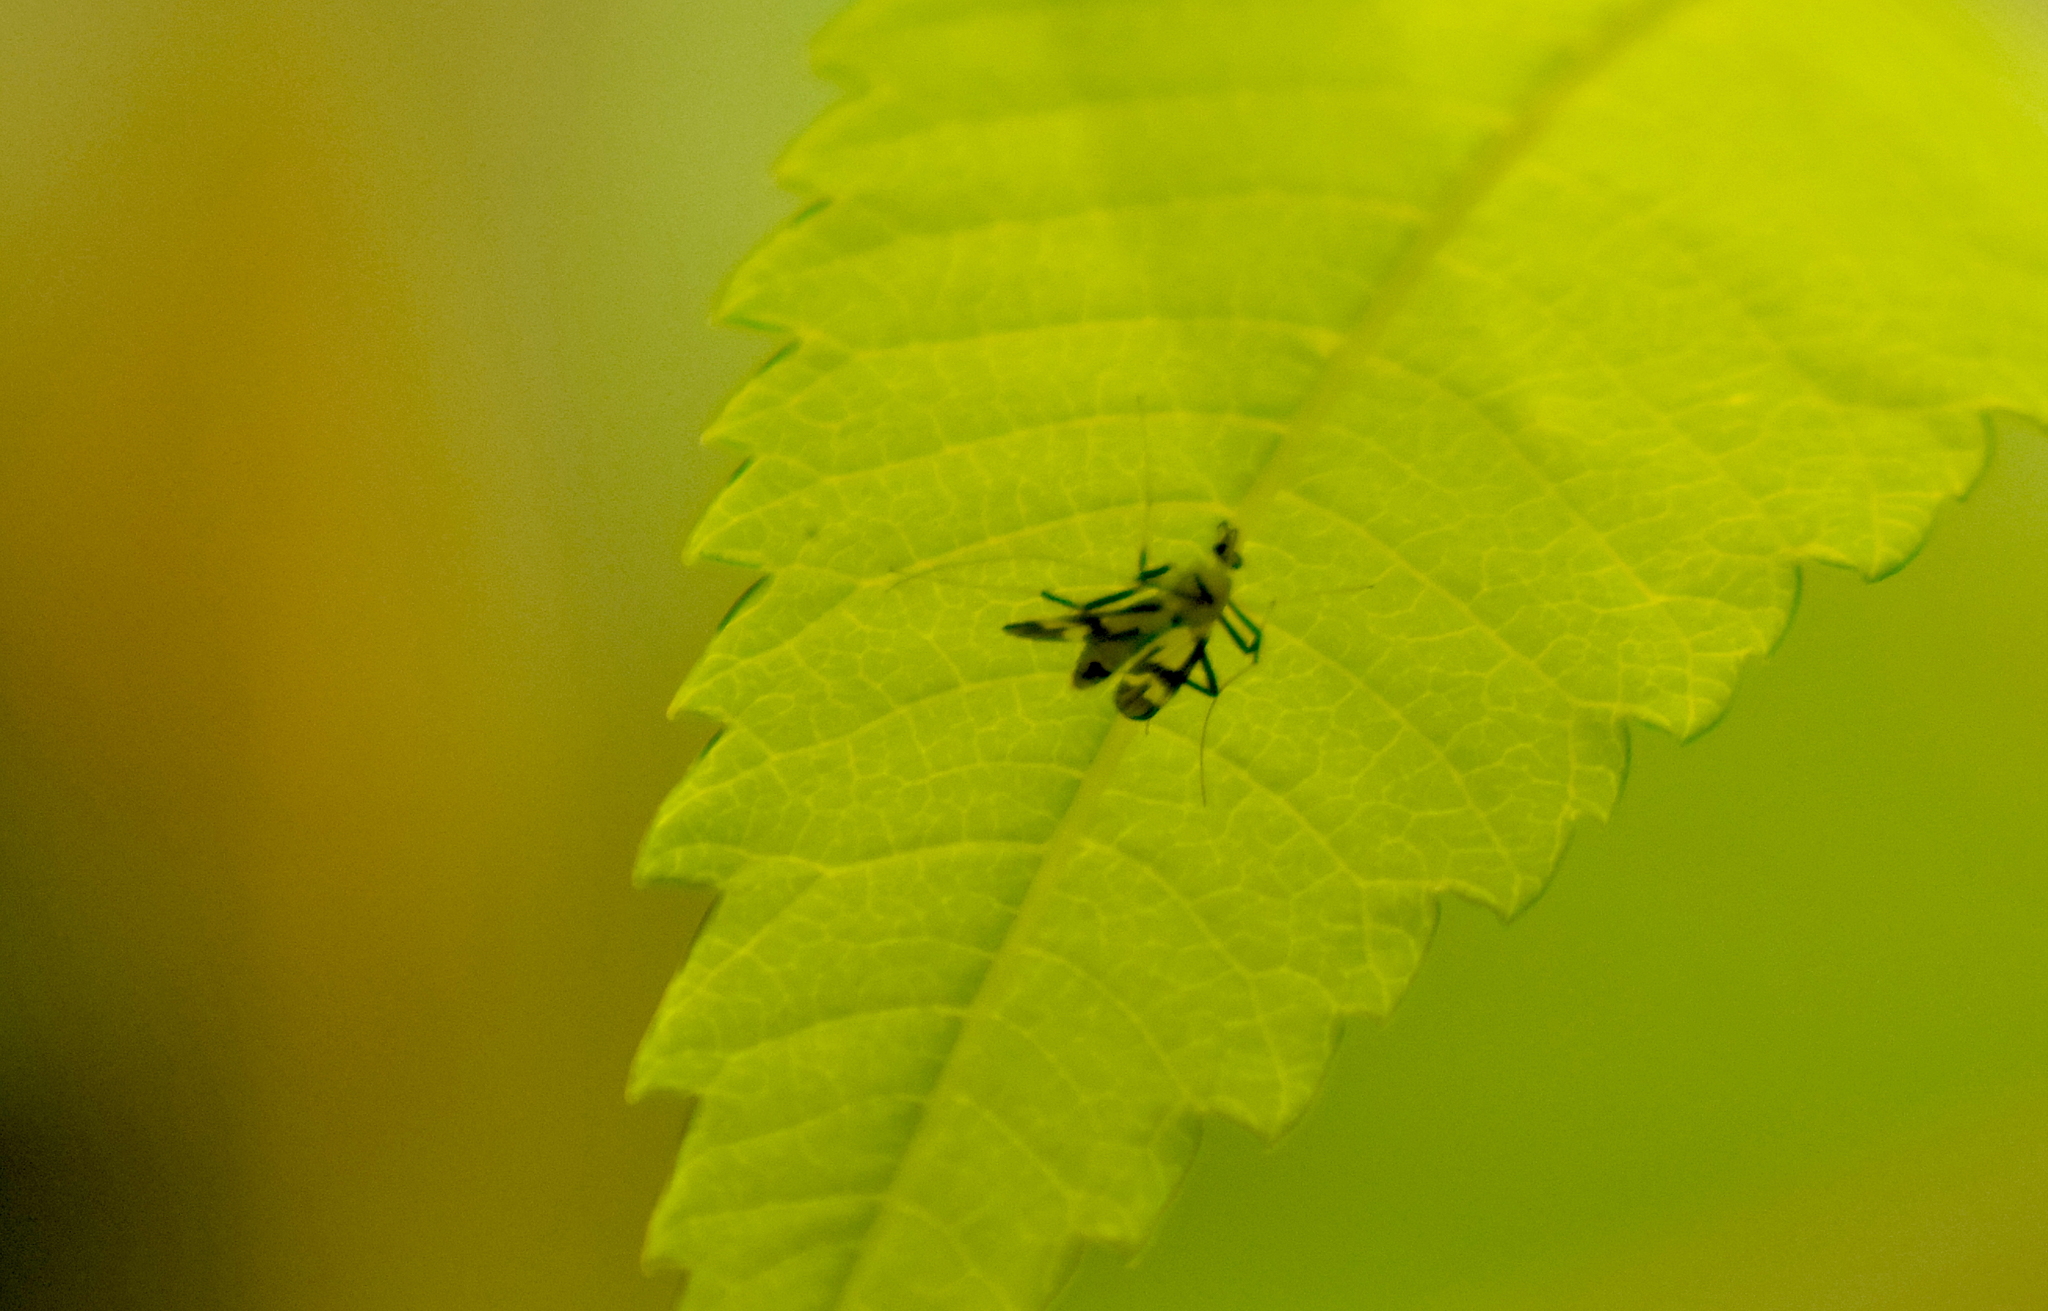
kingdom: Animalia
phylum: Arthropoda
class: Insecta
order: Diptera
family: Chironomidae
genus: Stenochironomus
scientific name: Stenochironomus hilaris
